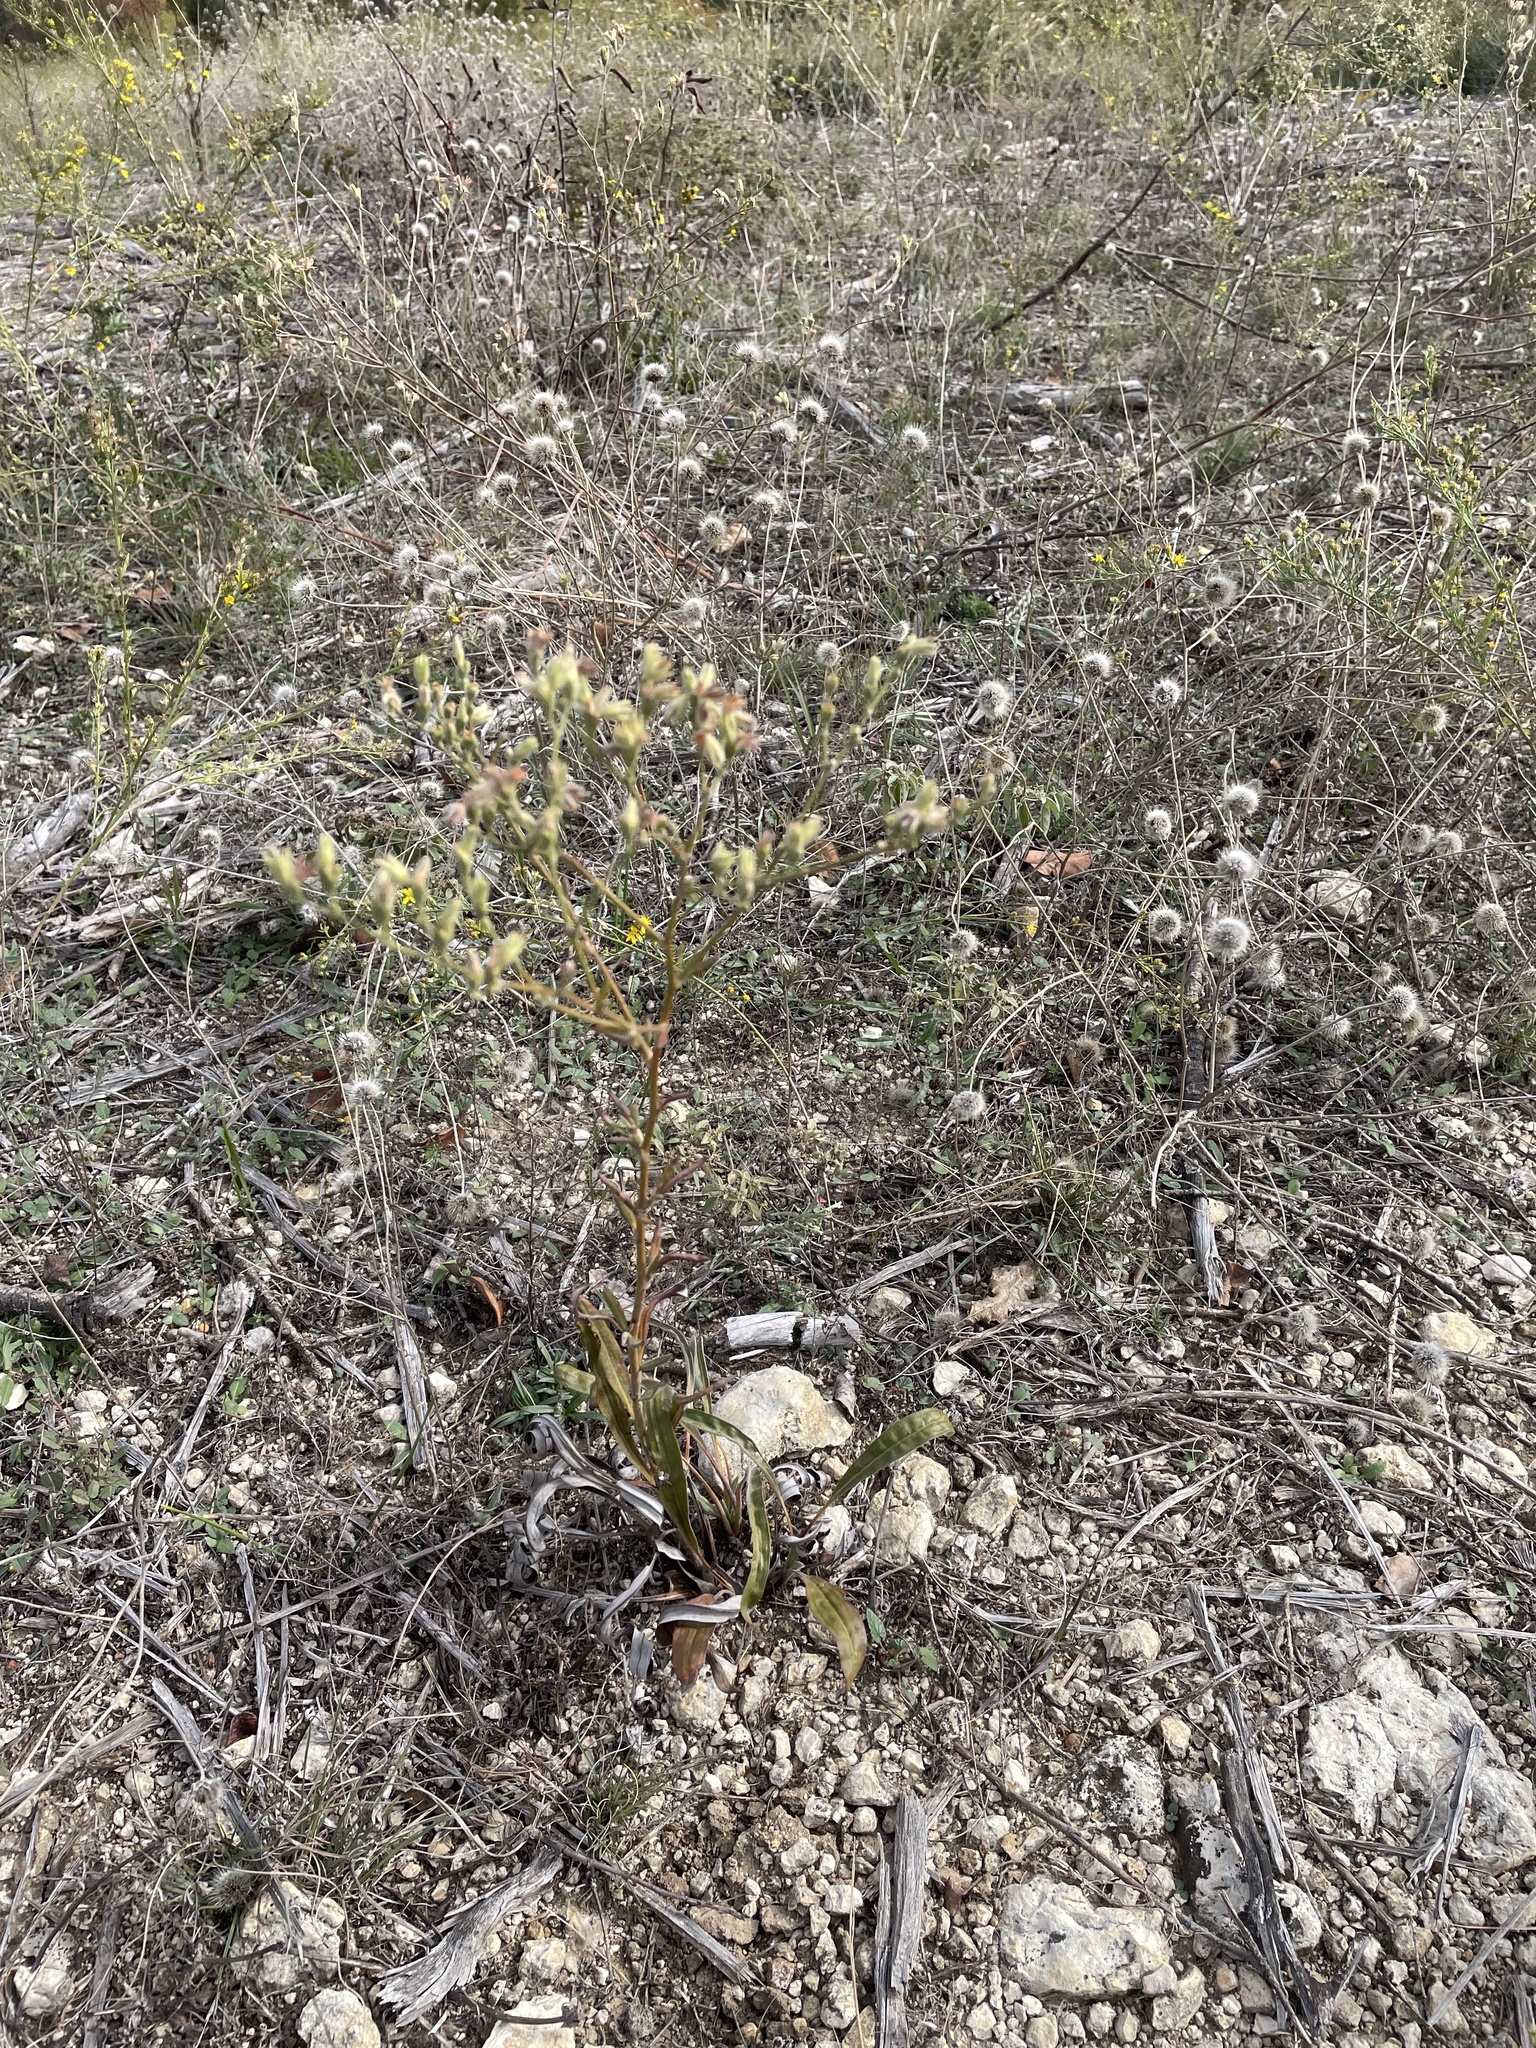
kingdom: Plantae
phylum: Tracheophyta
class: Magnoliopsida
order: Caryophyllales
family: Polygonaceae
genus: Eriogonum
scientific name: Eriogonum longifolium
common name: Longleaf wild buckwheat
